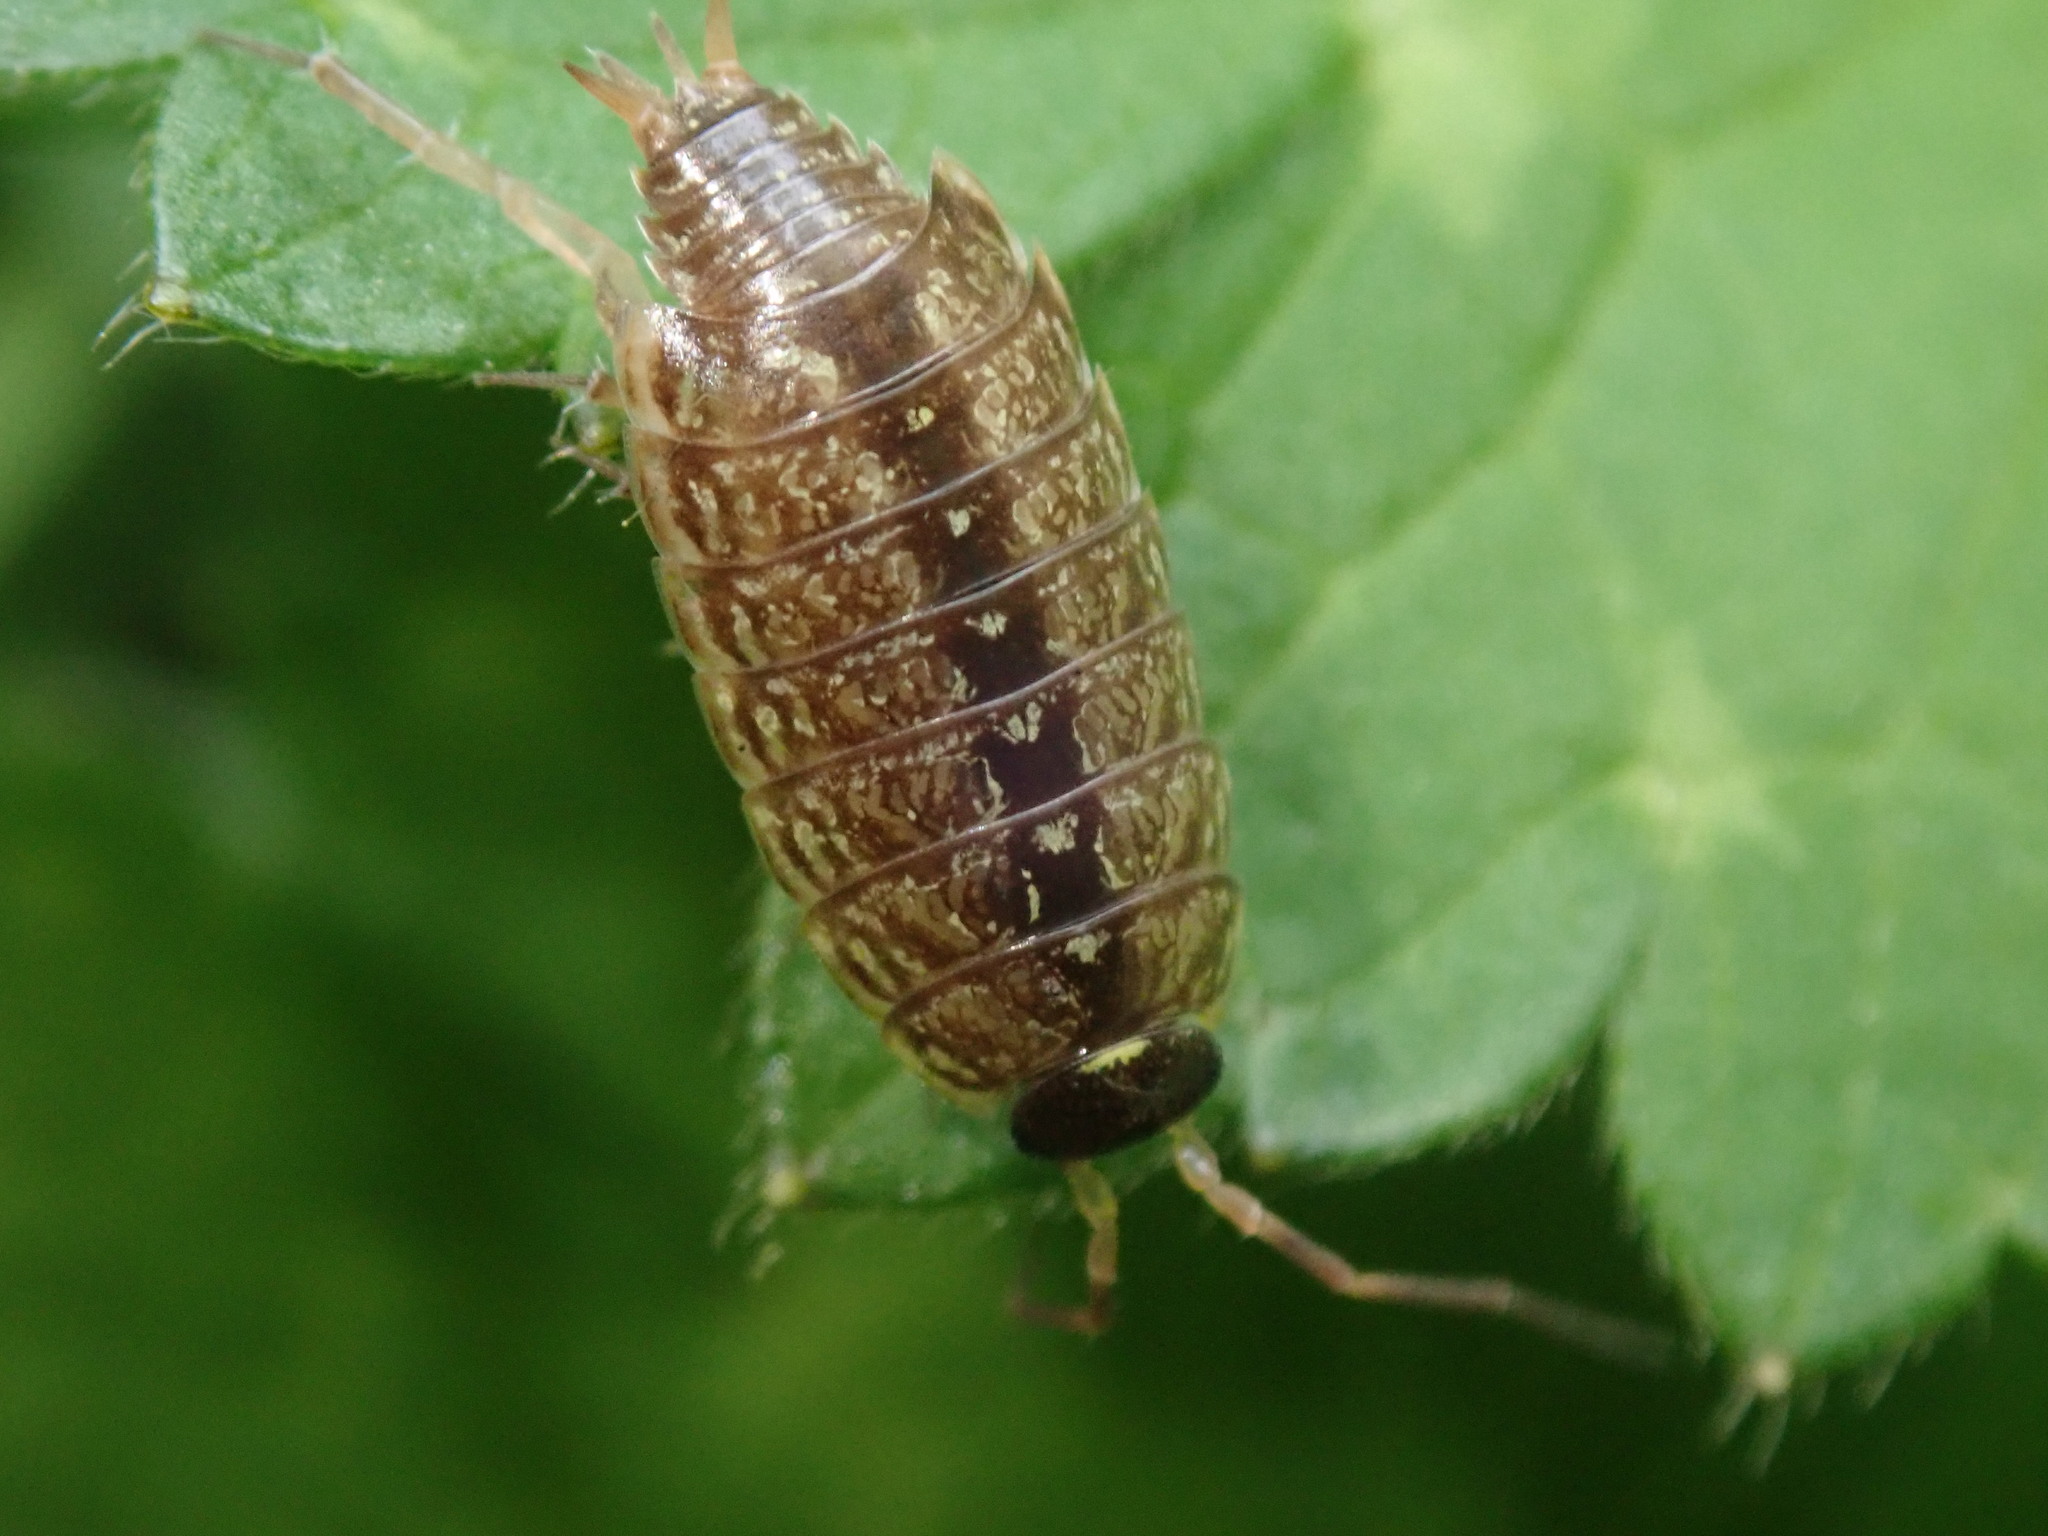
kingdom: Animalia
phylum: Arthropoda
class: Malacostraca
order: Isopoda
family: Philosciidae
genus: Philoscia
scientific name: Philoscia muscorum
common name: Common striped woodlouse
